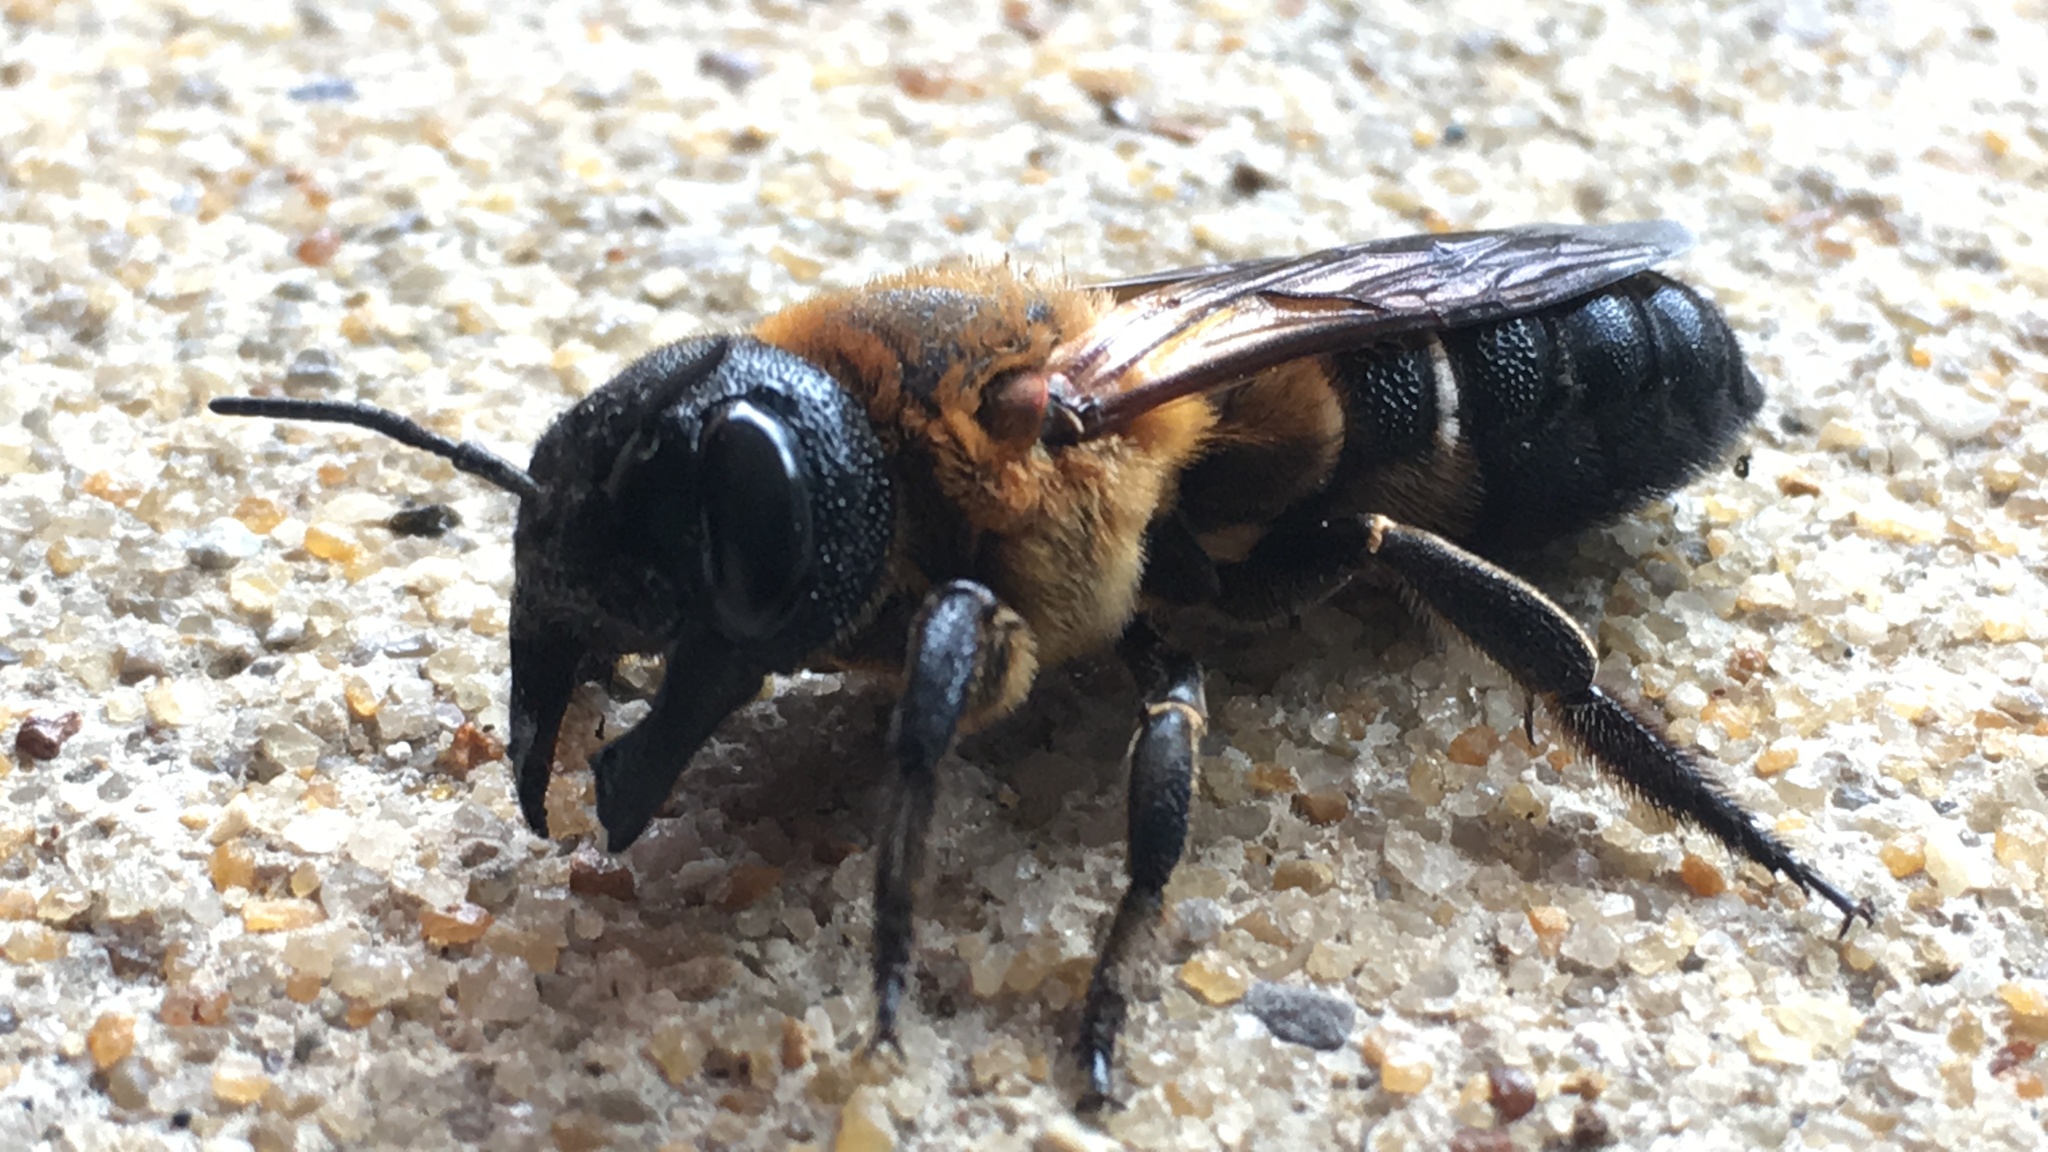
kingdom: Animalia
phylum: Arthropoda
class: Insecta
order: Hymenoptera
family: Megachilidae
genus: Megachile
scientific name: Megachile sculpturalis
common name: Sculptured resin bee
